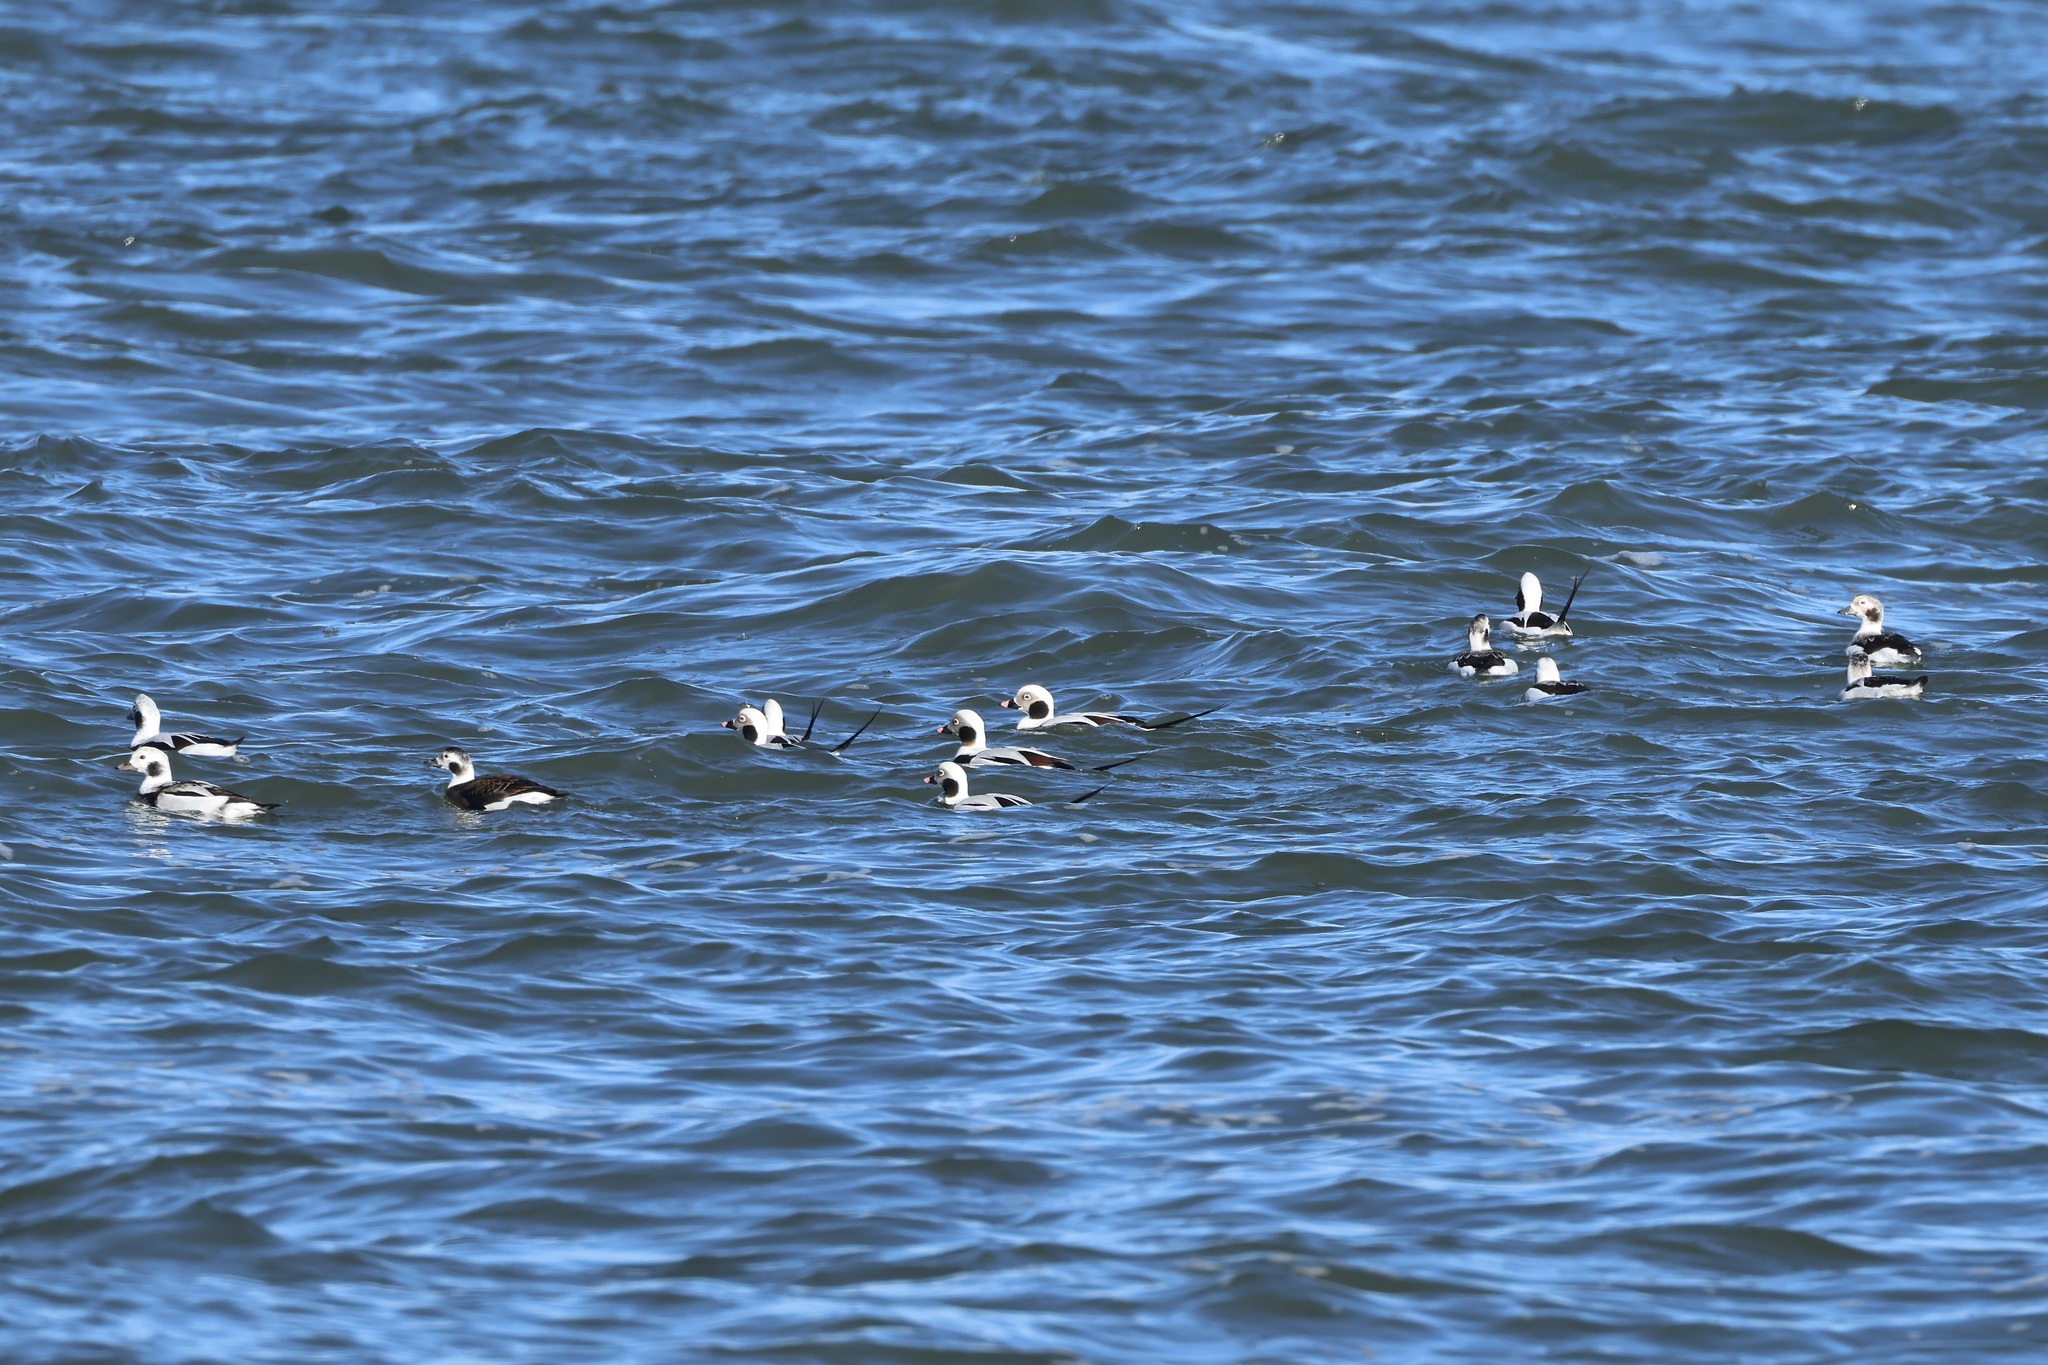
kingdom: Animalia
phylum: Chordata
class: Aves
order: Anseriformes
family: Anatidae
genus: Clangula
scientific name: Clangula hyemalis
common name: Long-tailed duck
